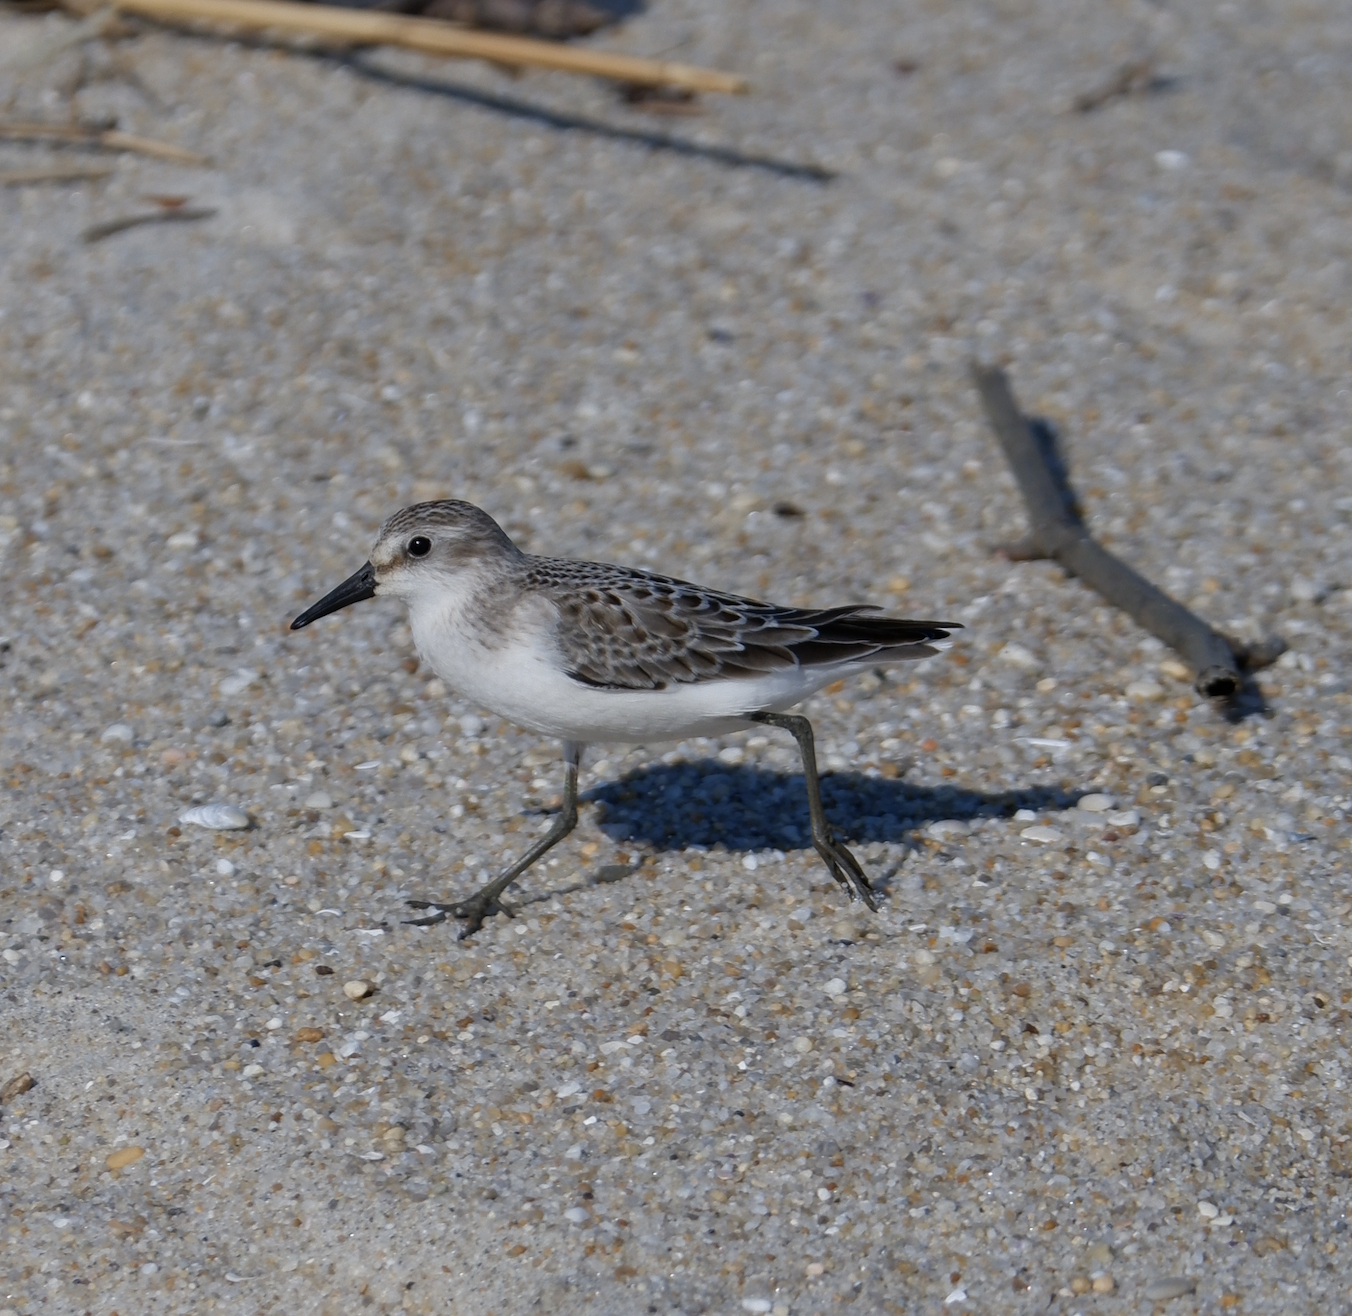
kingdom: Animalia
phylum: Chordata
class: Aves
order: Charadriiformes
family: Scolopacidae
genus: Calidris
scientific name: Calidris pusilla
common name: Semipalmated sandpiper
